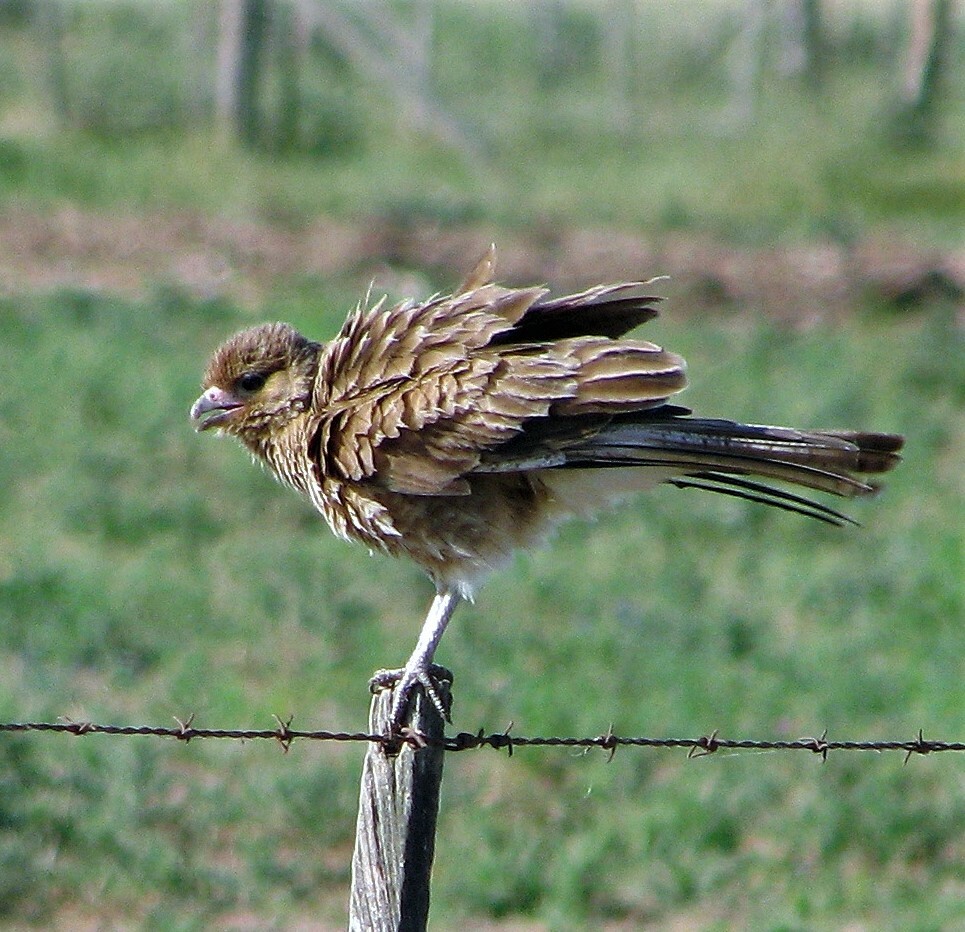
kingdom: Animalia
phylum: Chordata
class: Aves
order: Falconiformes
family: Falconidae
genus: Daptrius
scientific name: Daptrius
